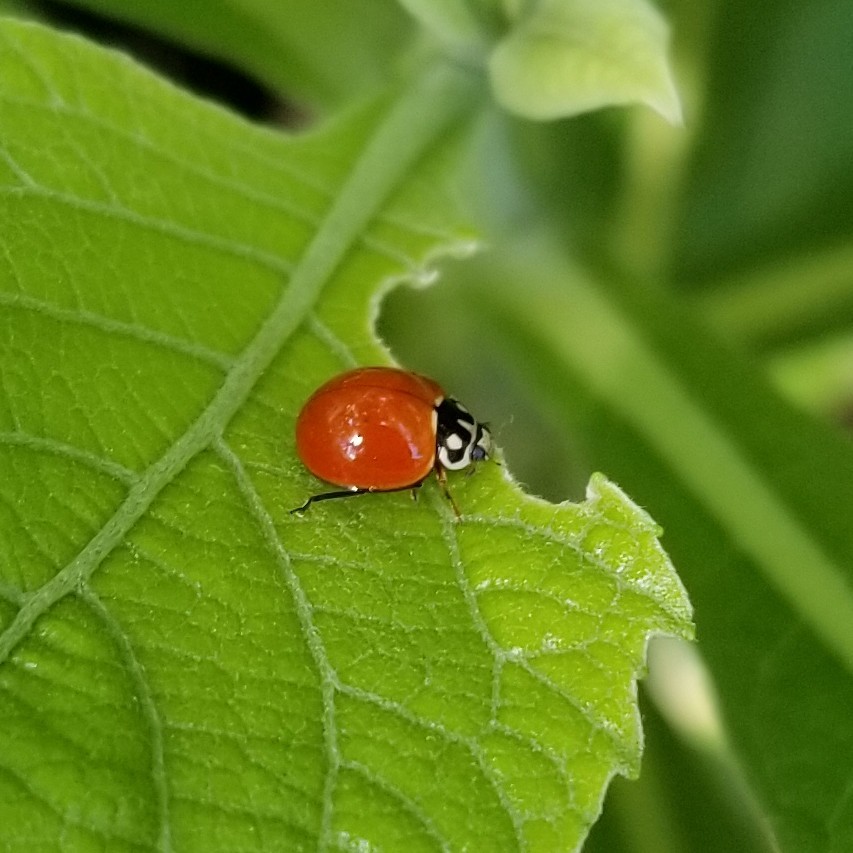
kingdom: Animalia
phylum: Arthropoda
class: Insecta
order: Coleoptera
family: Coccinellidae
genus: Cycloneda
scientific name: Cycloneda sanguinea
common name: Ladybird beetle
